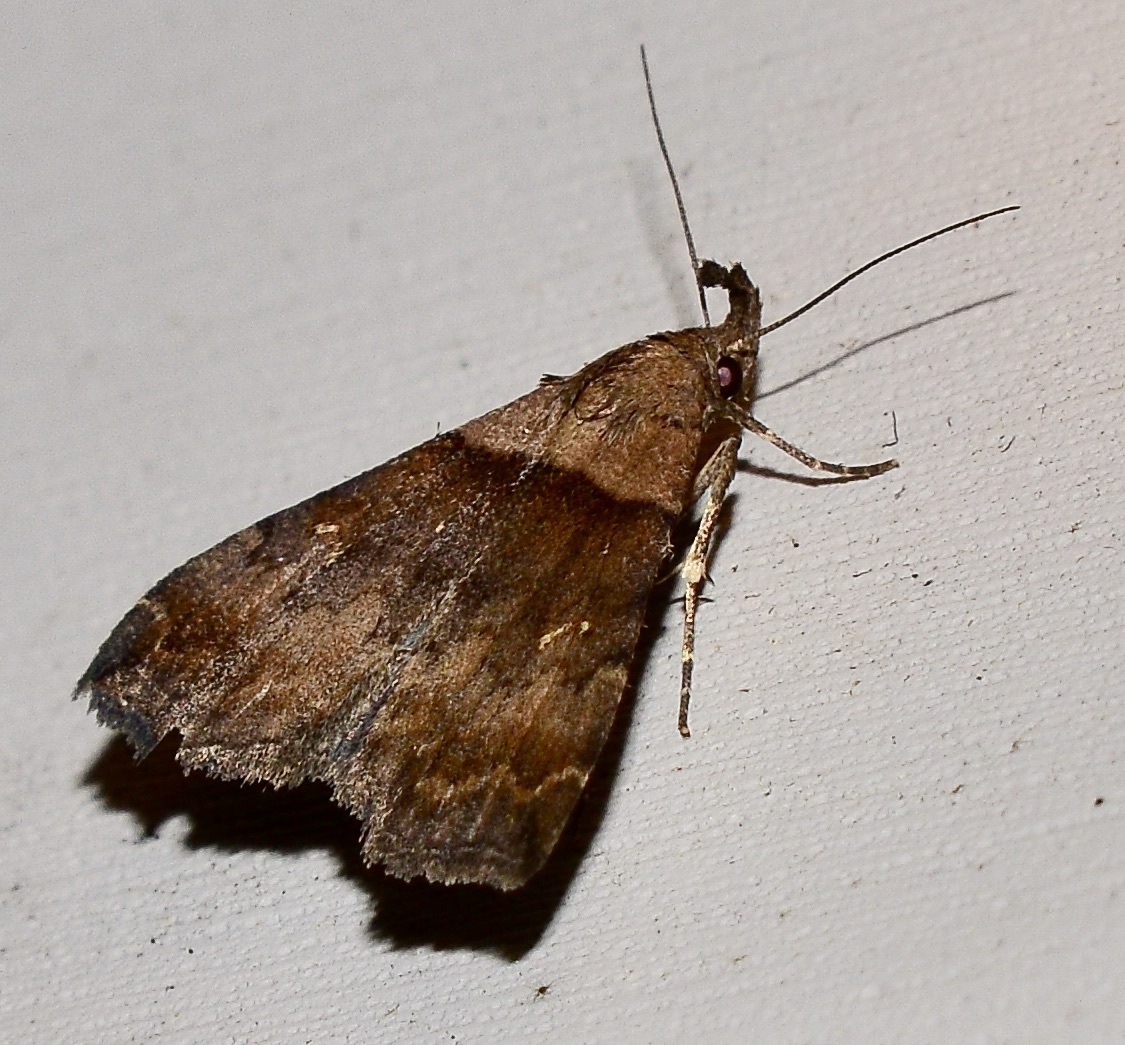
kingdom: Animalia
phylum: Arthropoda
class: Insecta
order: Lepidoptera
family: Erebidae
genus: Lascoria
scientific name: Lascoria ambigualis
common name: Ambiguous moth
